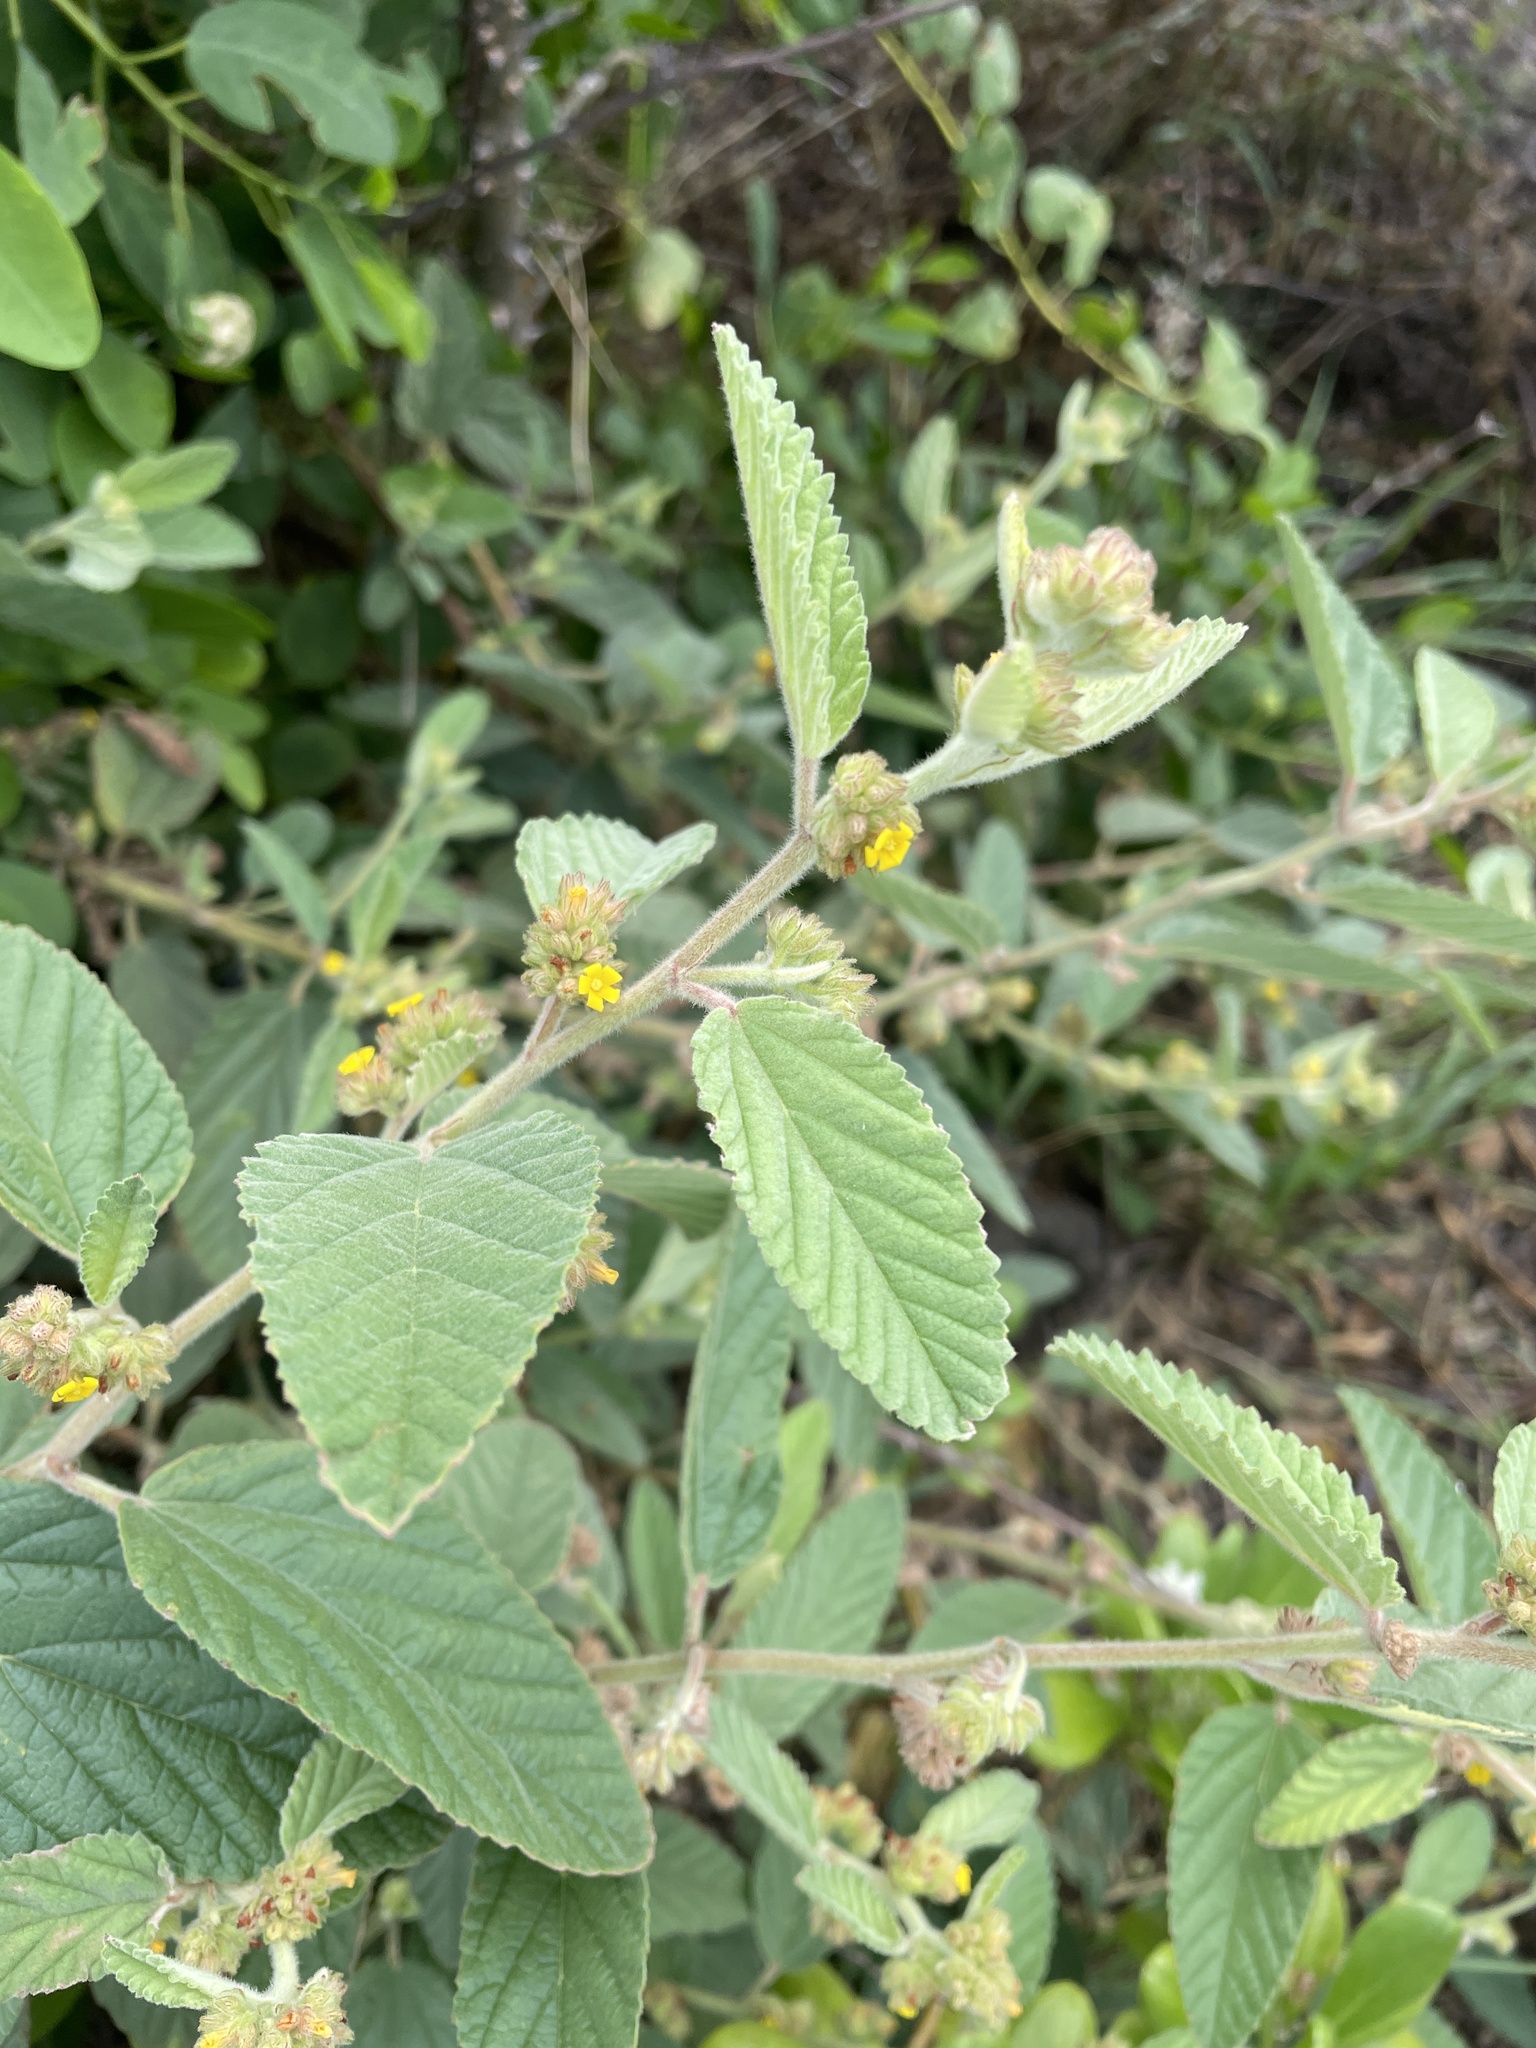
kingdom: Plantae
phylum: Tracheophyta
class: Magnoliopsida
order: Malvales
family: Malvaceae
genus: Waltheria
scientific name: Waltheria indica
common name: Leather-coat
